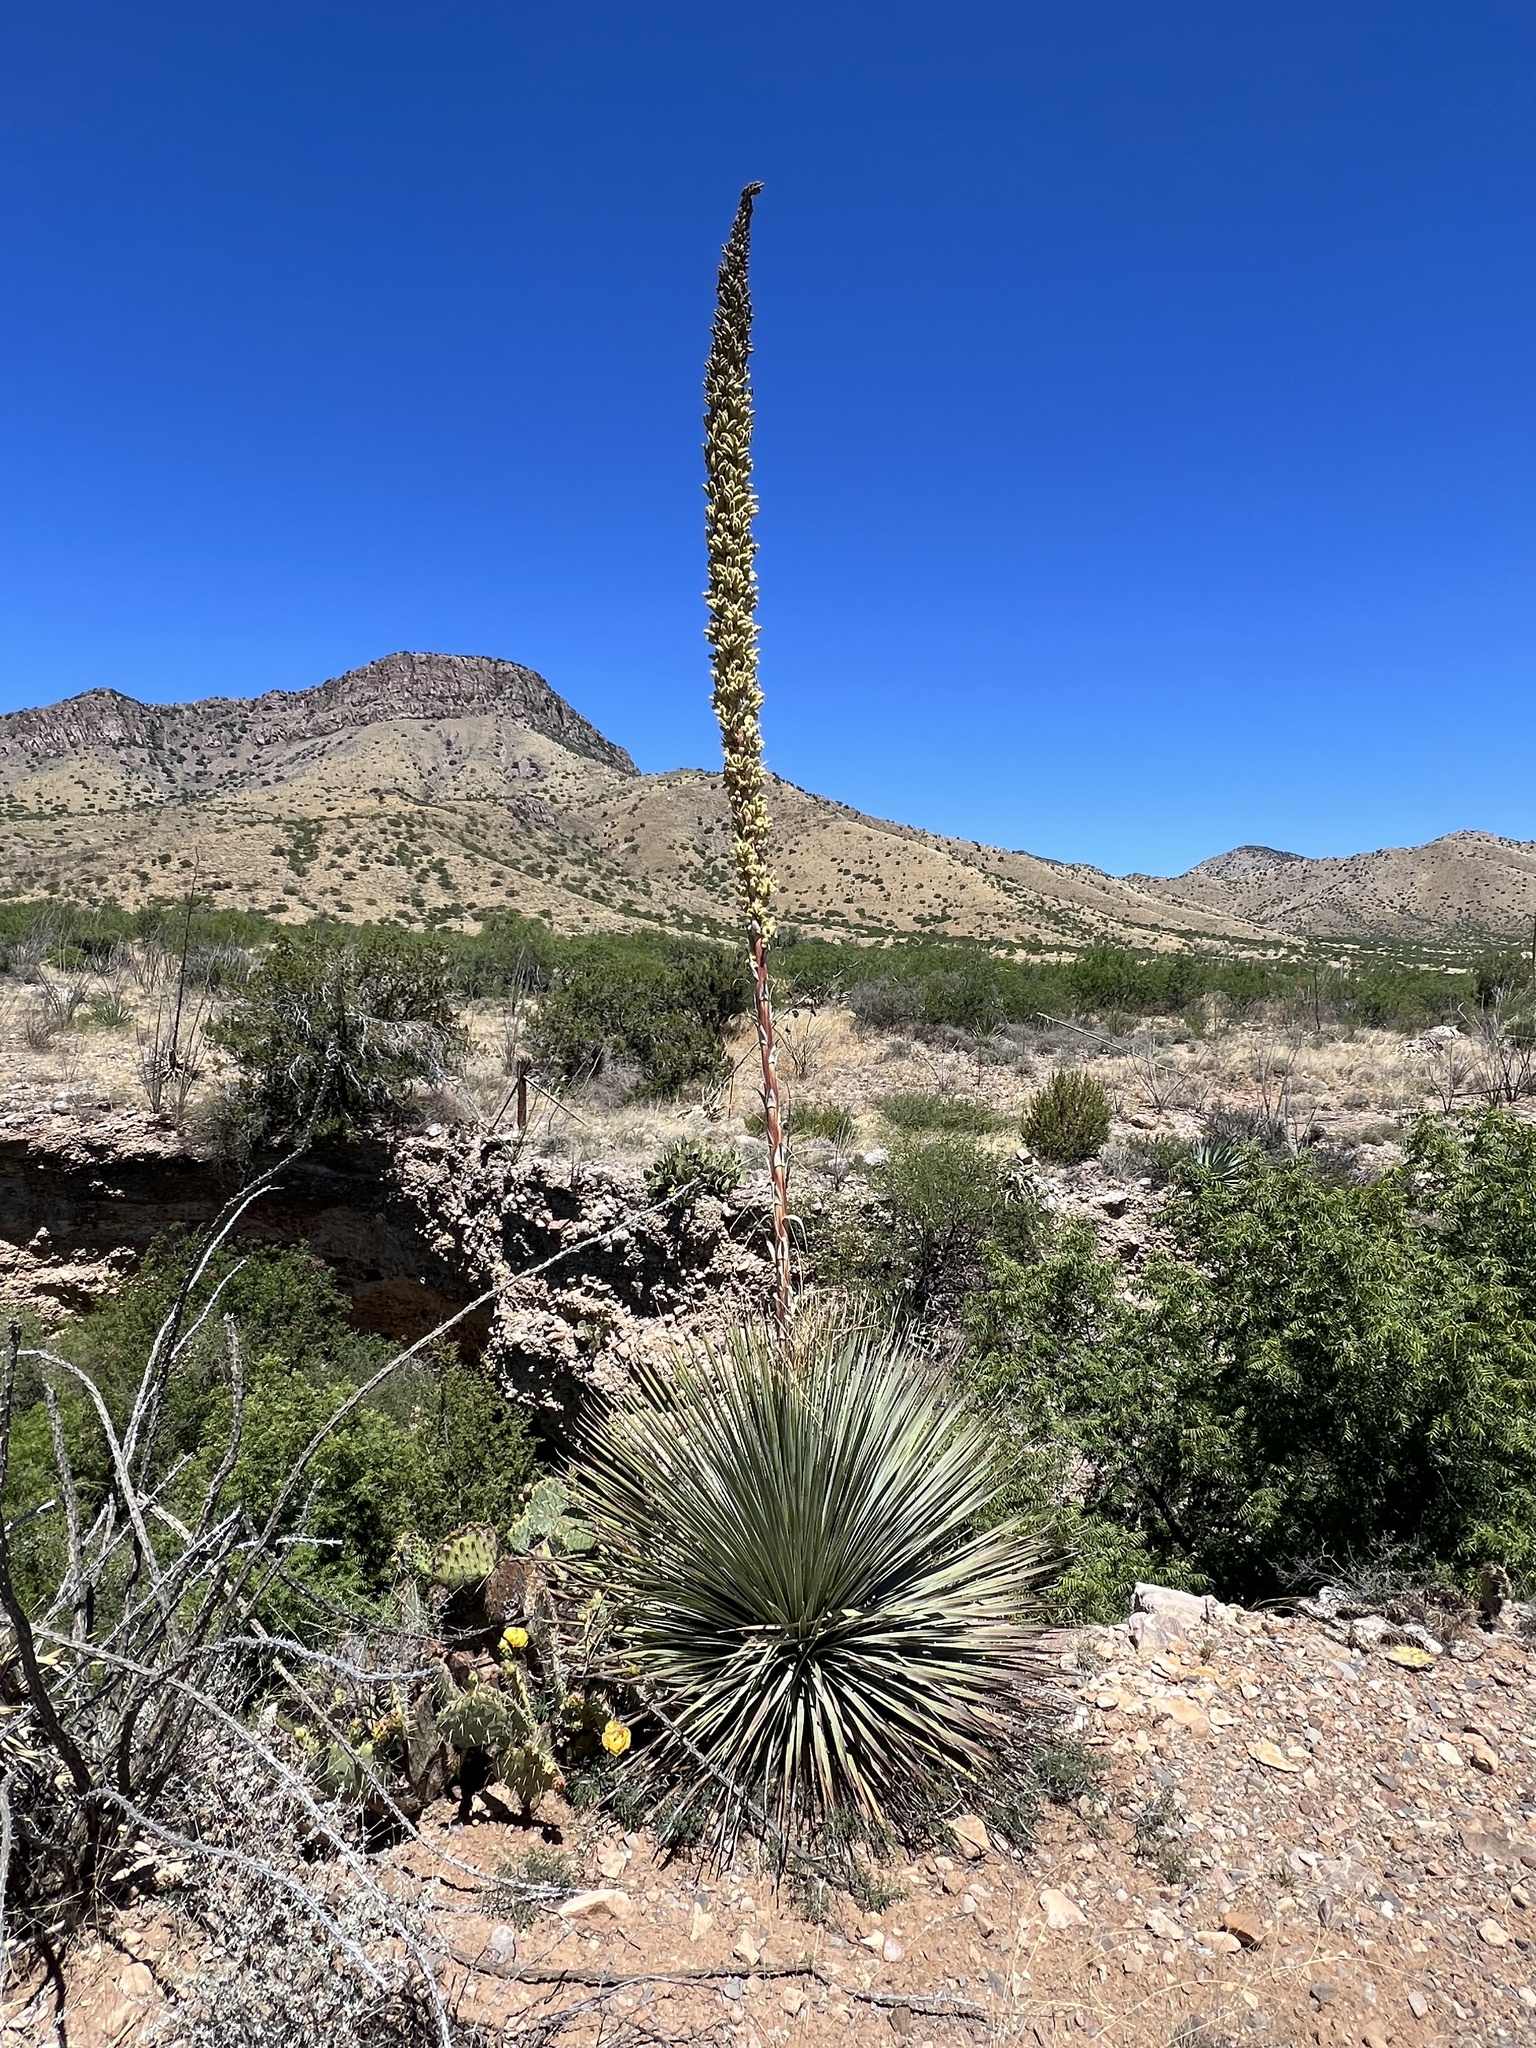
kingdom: Plantae
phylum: Tracheophyta
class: Liliopsida
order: Asparagales
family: Asparagaceae
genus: Dasylirion
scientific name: Dasylirion wheeleri
